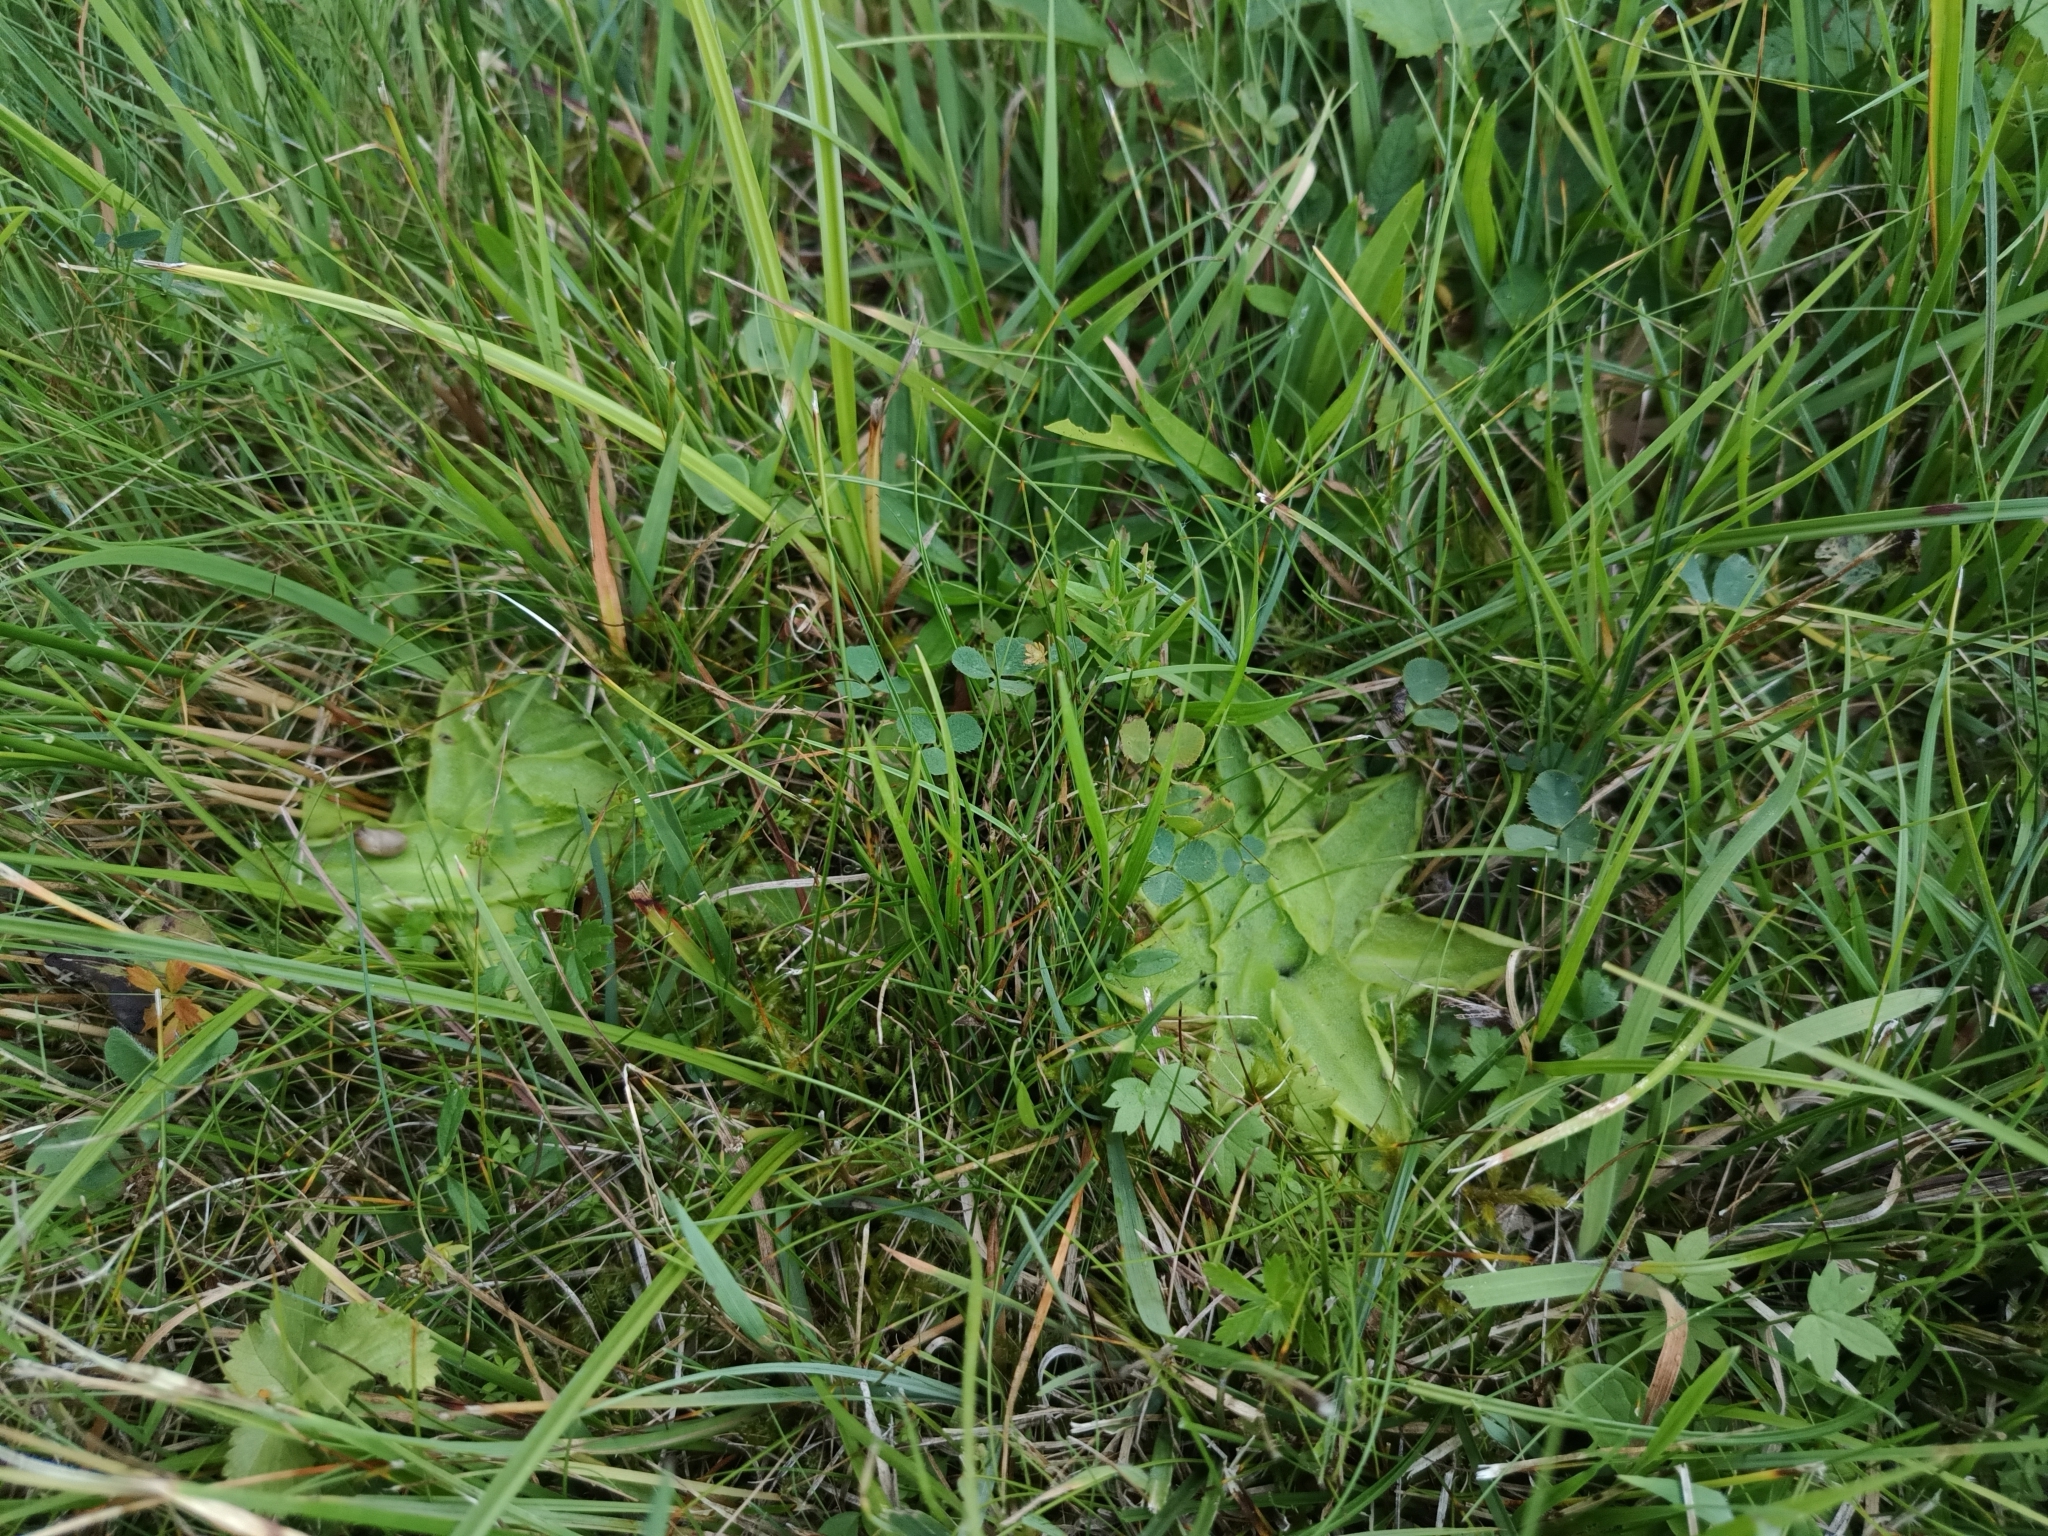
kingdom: Plantae
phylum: Tracheophyta
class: Magnoliopsida
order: Lamiales
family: Lentibulariaceae
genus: Pinguicula
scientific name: Pinguicula vulgaris
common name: Common butterwort
